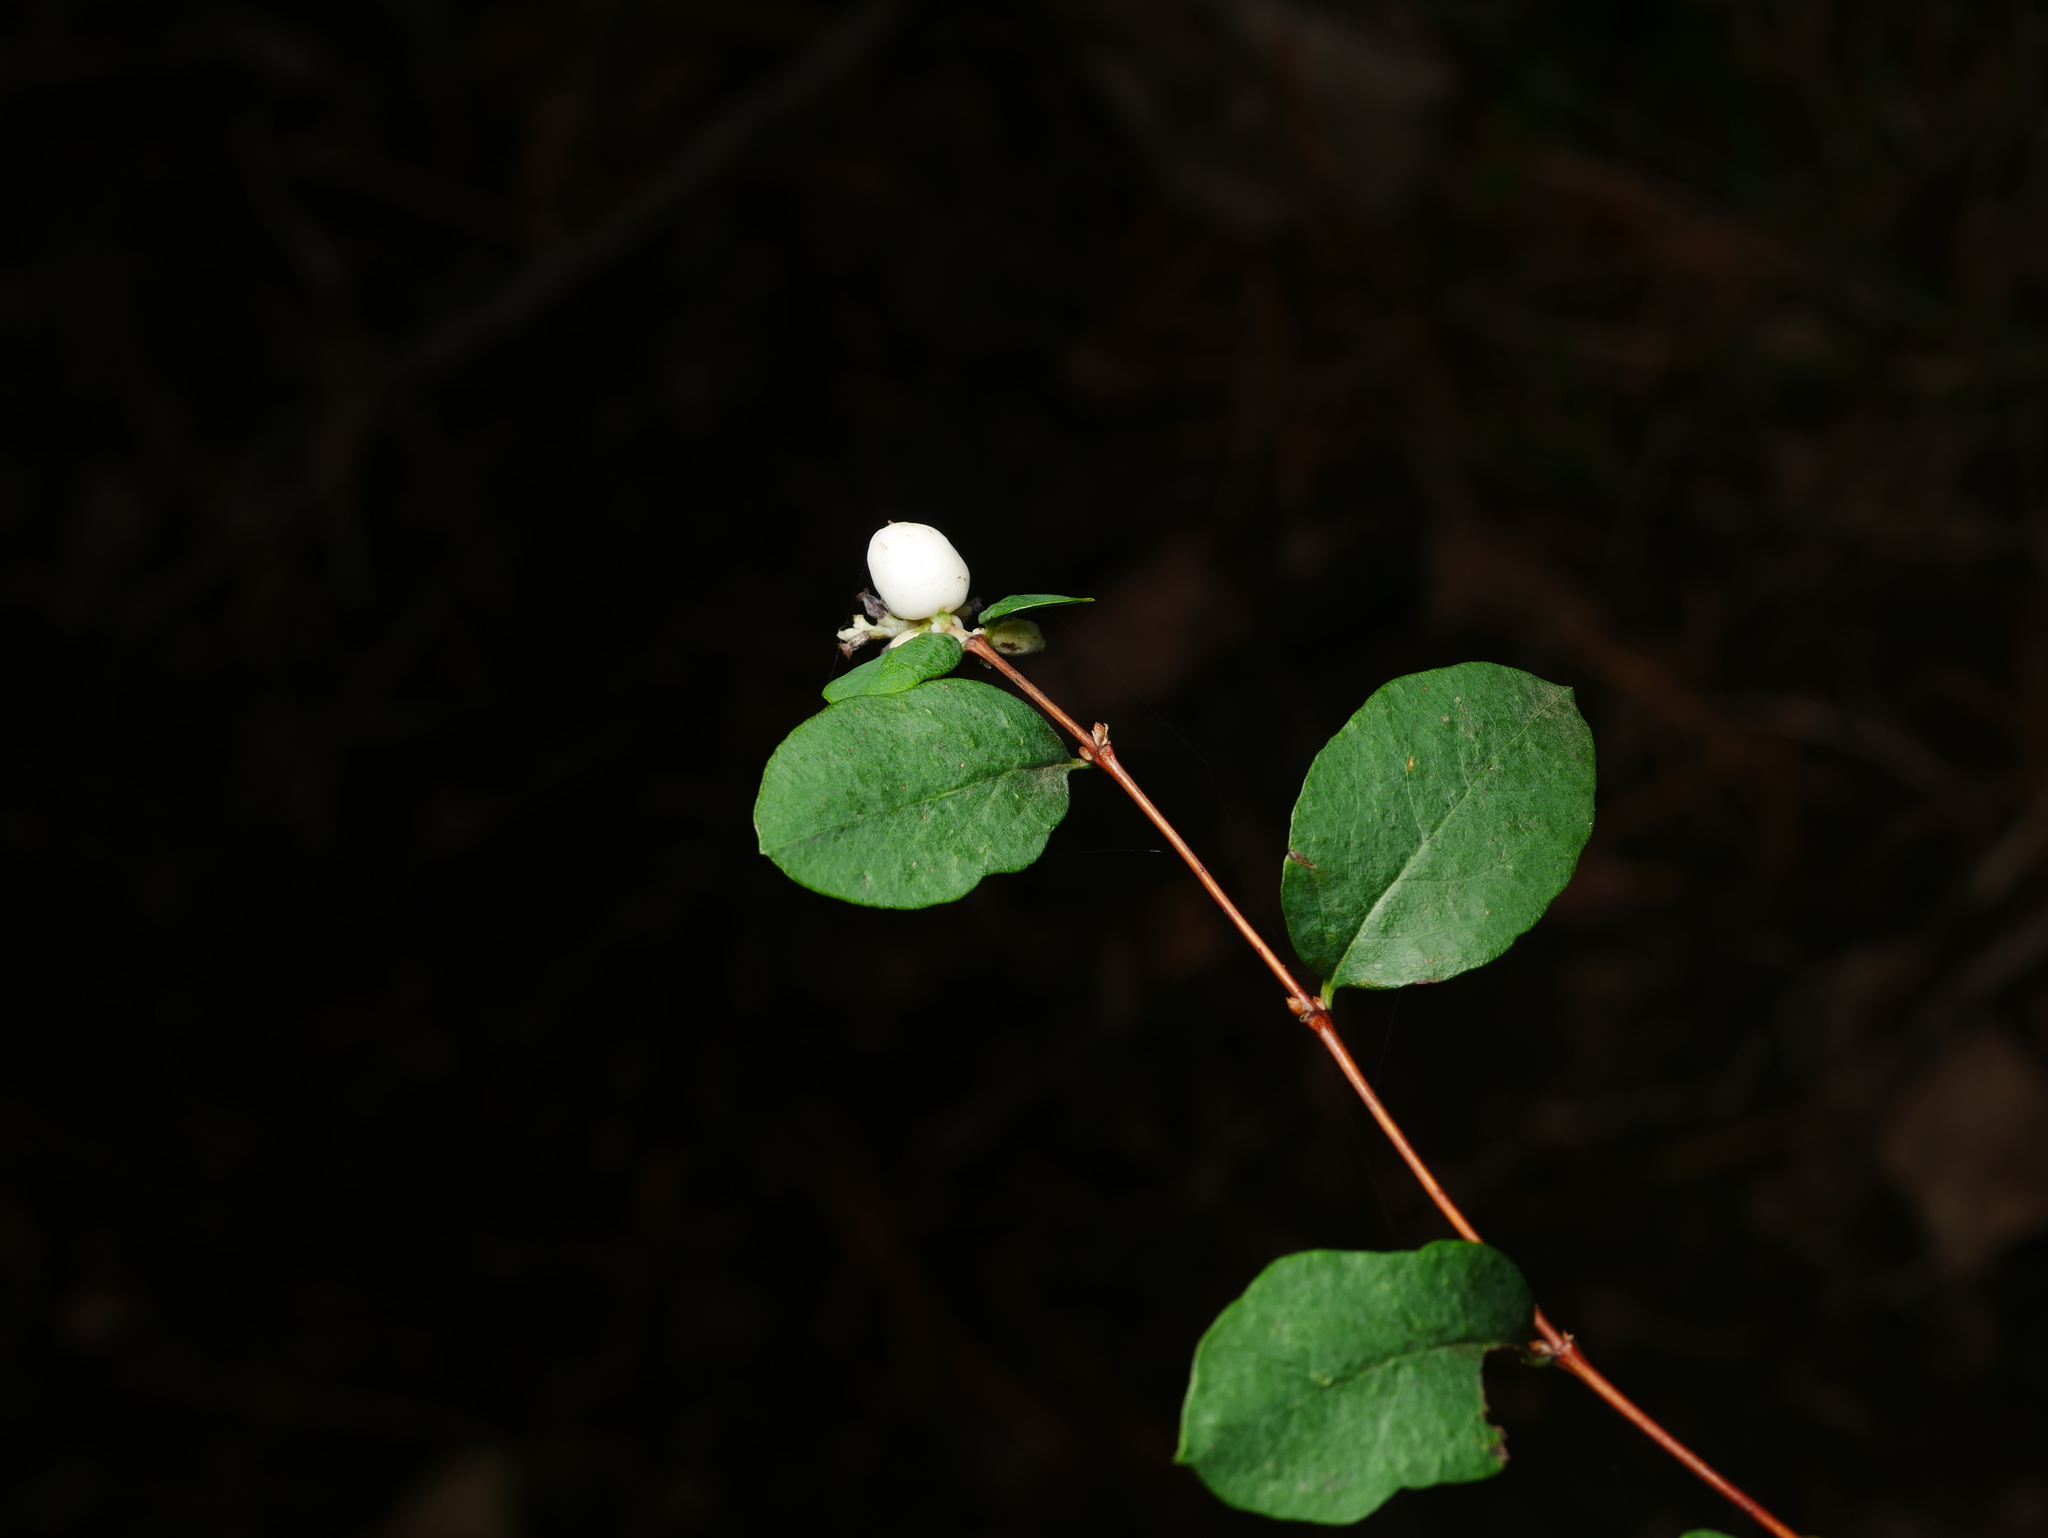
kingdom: Plantae
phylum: Tracheophyta
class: Magnoliopsida
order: Dipsacales
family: Caprifoliaceae
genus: Symphoricarpos
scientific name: Symphoricarpos albus
